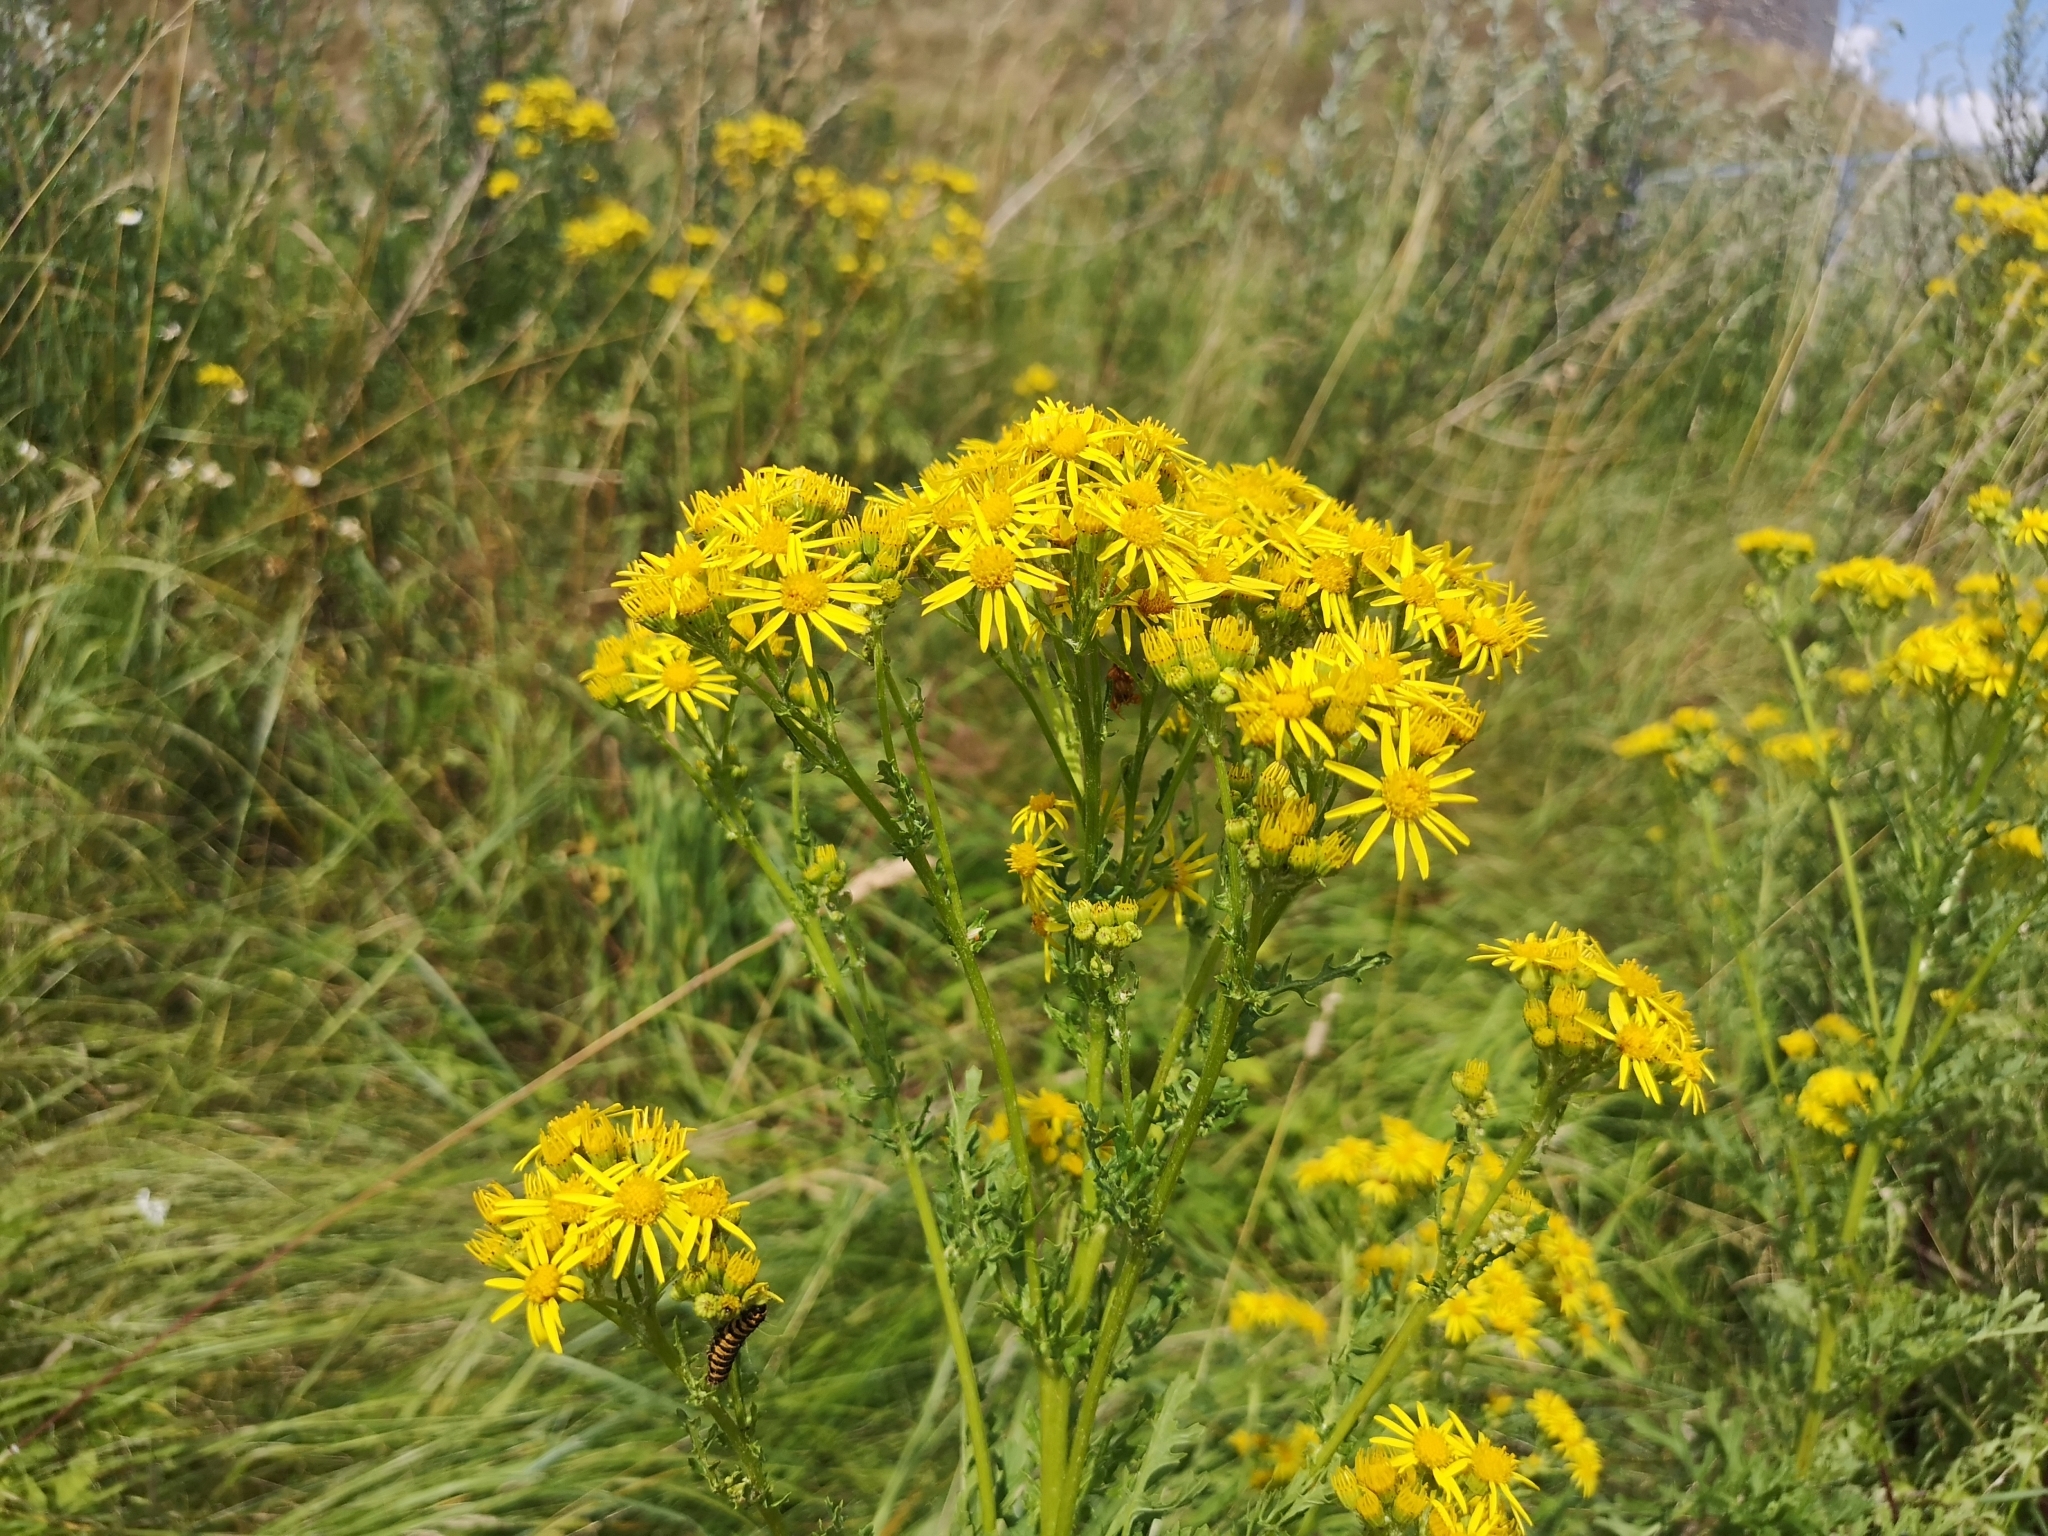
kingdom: Plantae
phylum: Tracheophyta
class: Magnoliopsida
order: Asterales
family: Asteraceae
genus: Jacobaea
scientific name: Jacobaea vulgaris
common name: Stinking willie
